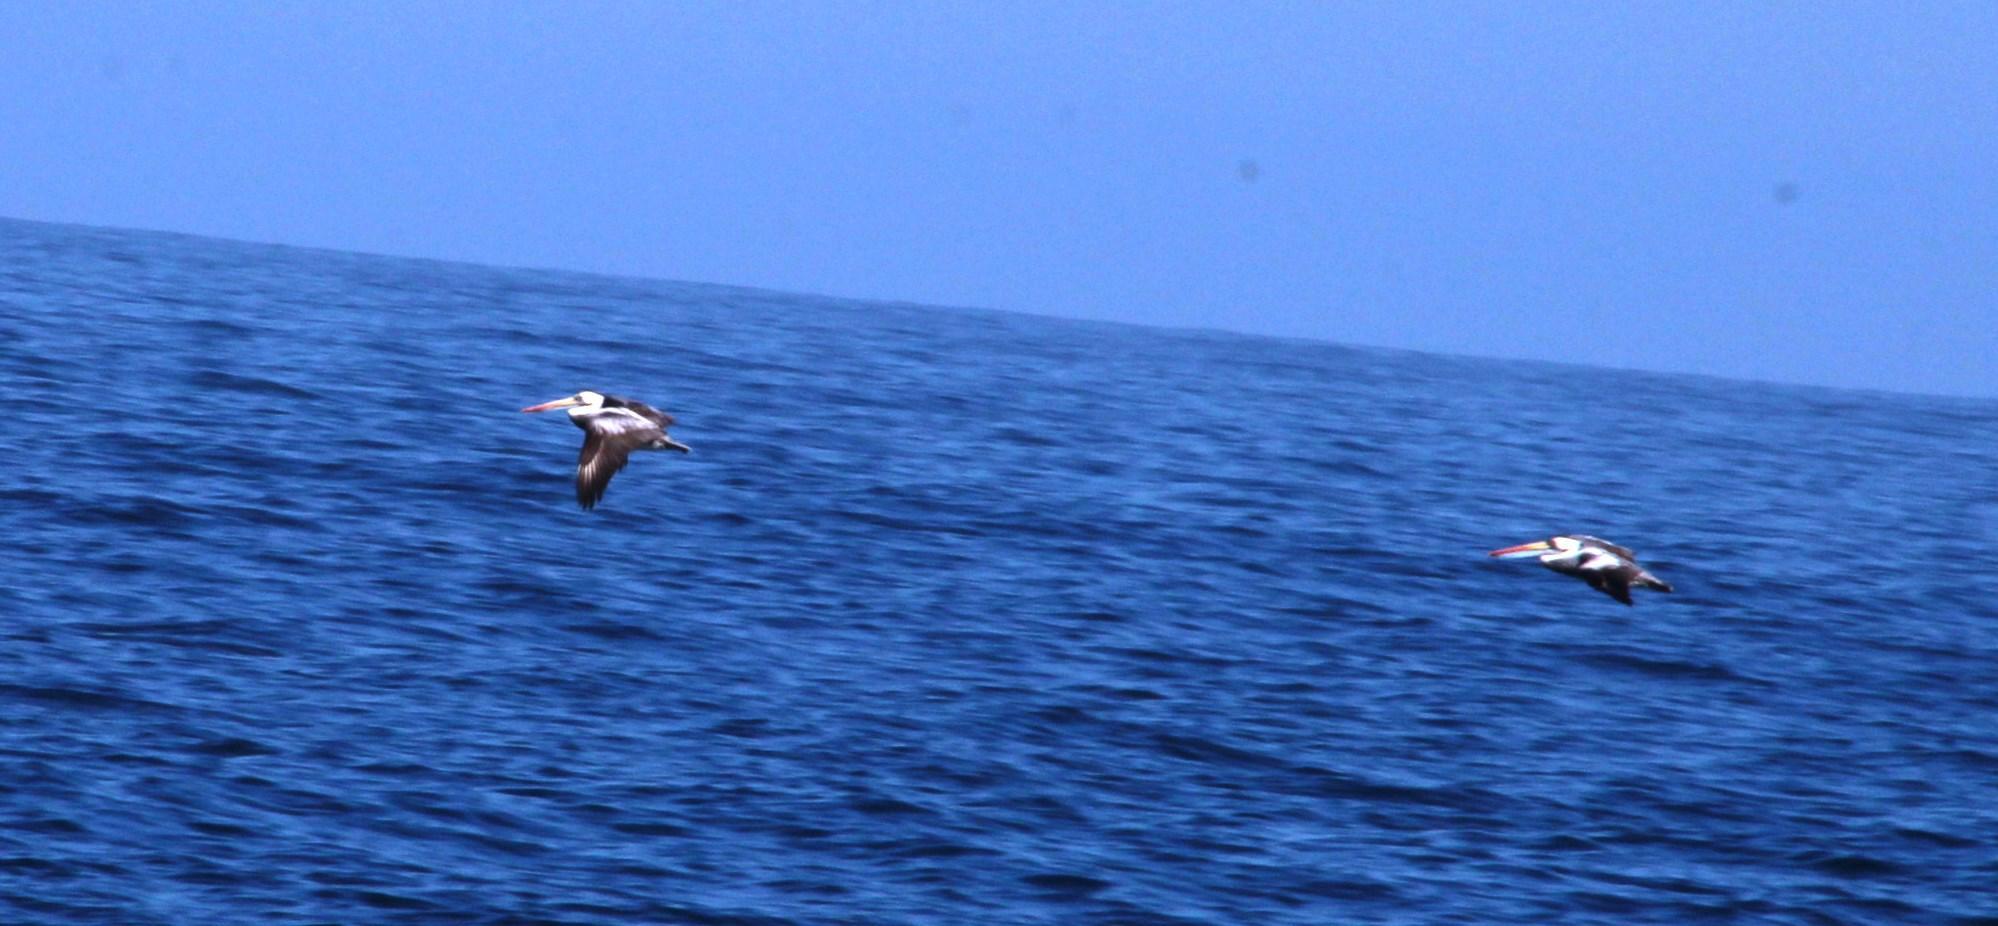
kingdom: Animalia
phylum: Chordata
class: Aves
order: Pelecaniformes
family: Pelecanidae
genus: Pelecanus
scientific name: Pelecanus thagus
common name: Peruvian pelican
